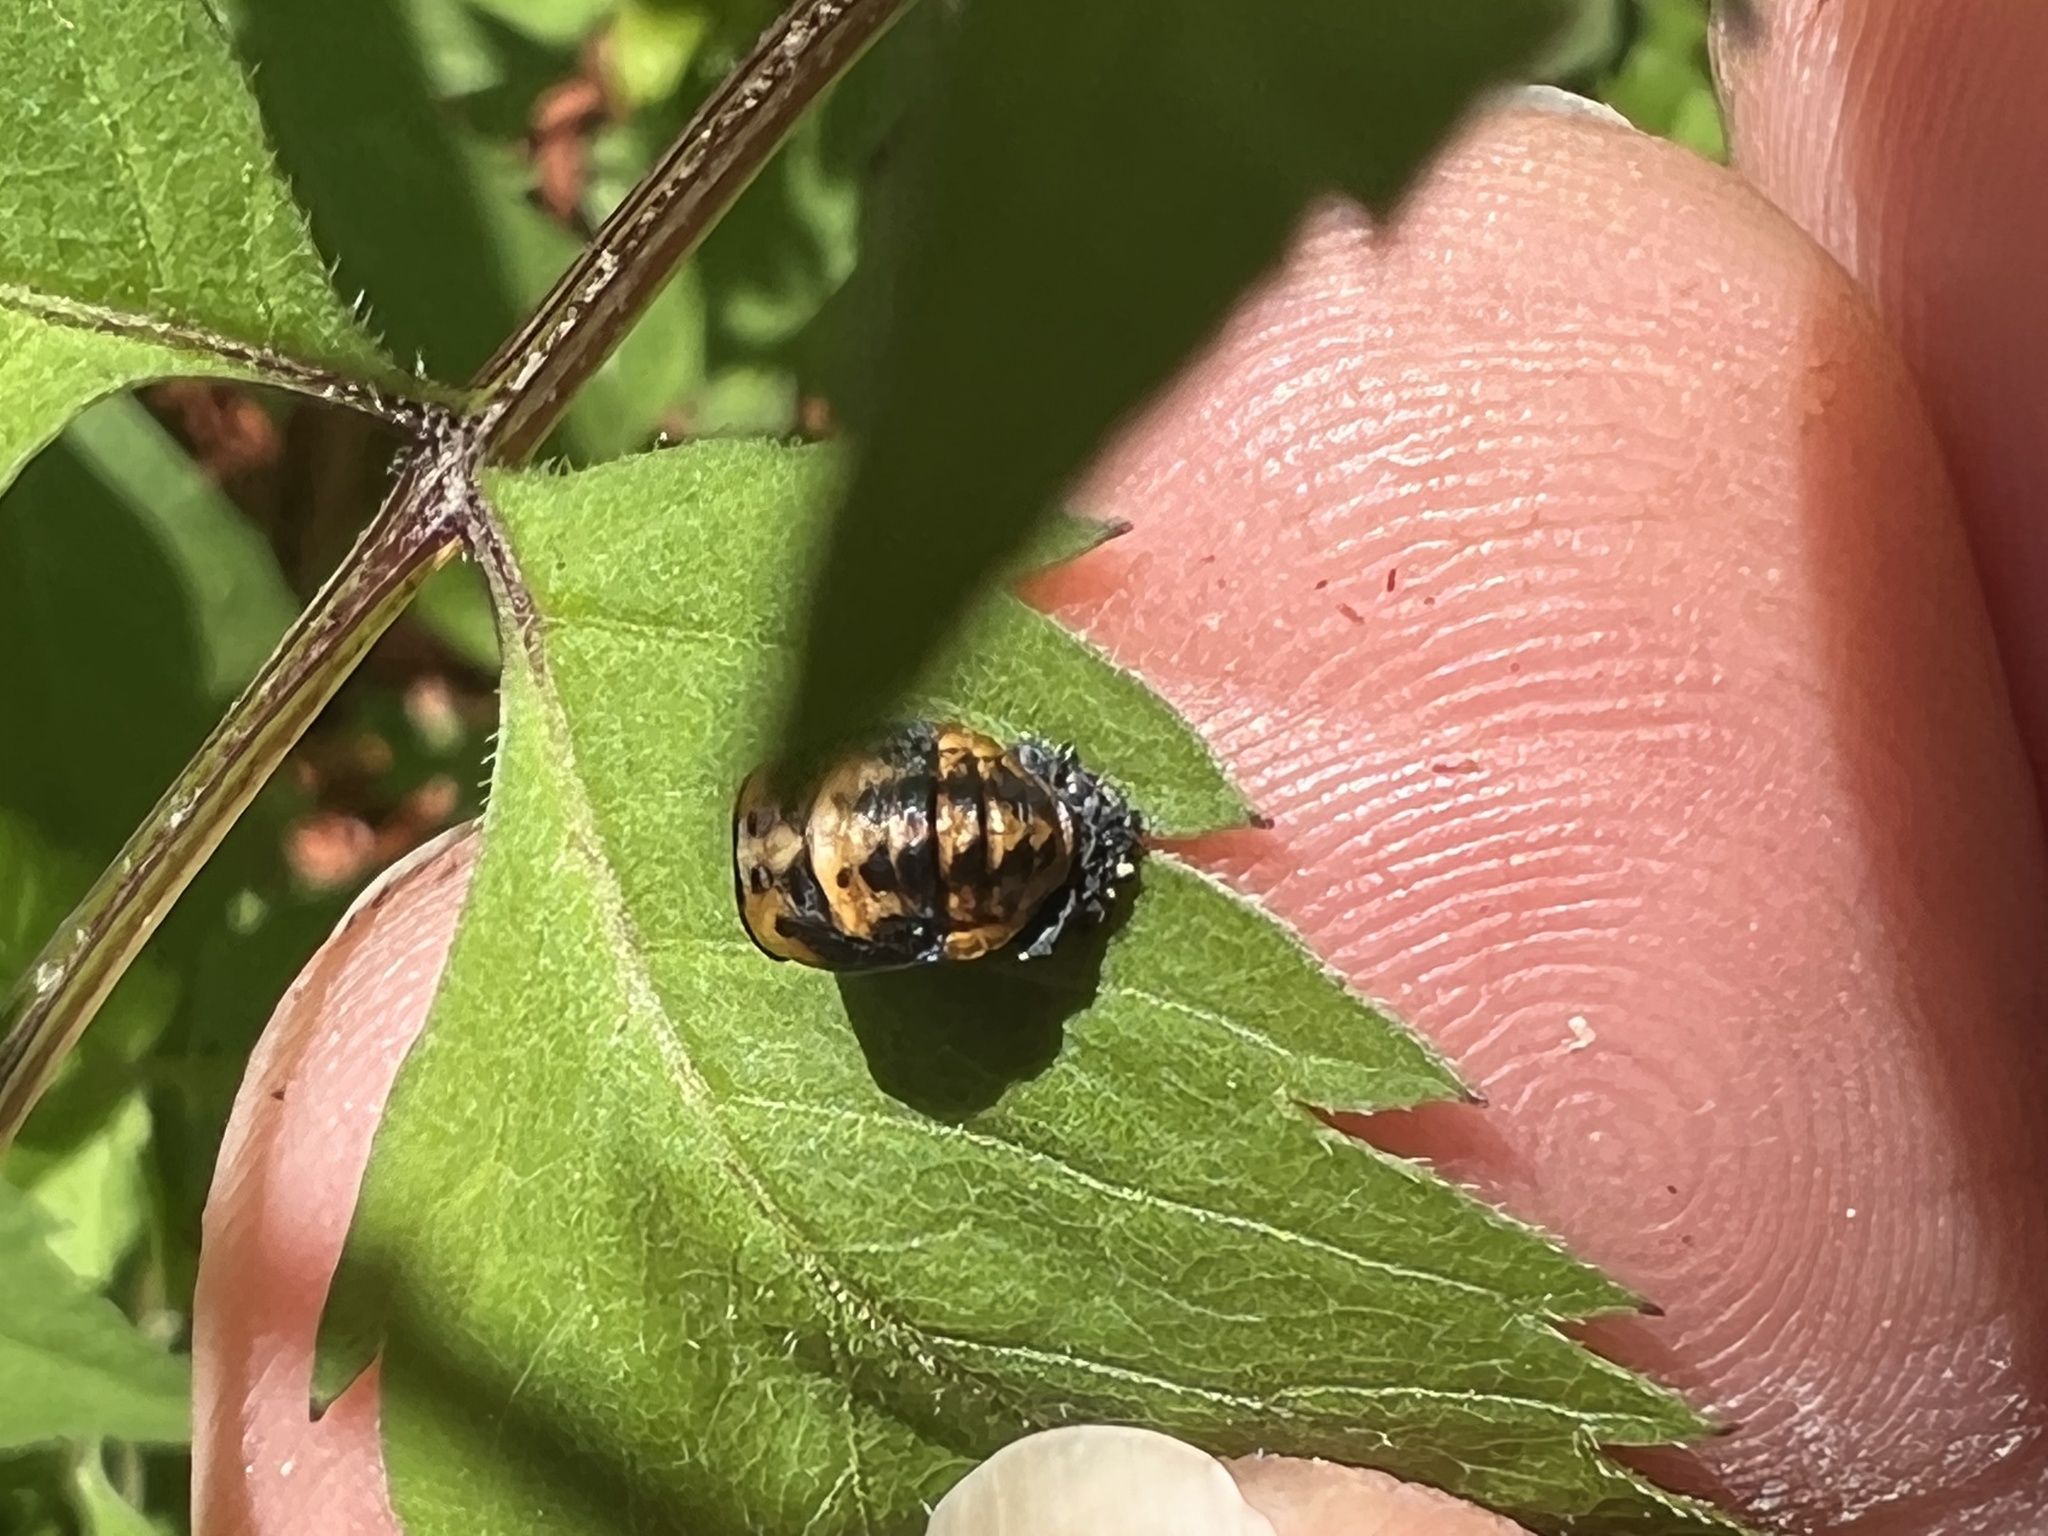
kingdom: Animalia
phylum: Arthropoda
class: Insecta
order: Coleoptera
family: Coccinellidae
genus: Coccinella
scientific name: Coccinella septempunctata
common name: Sevenspotted lady beetle
